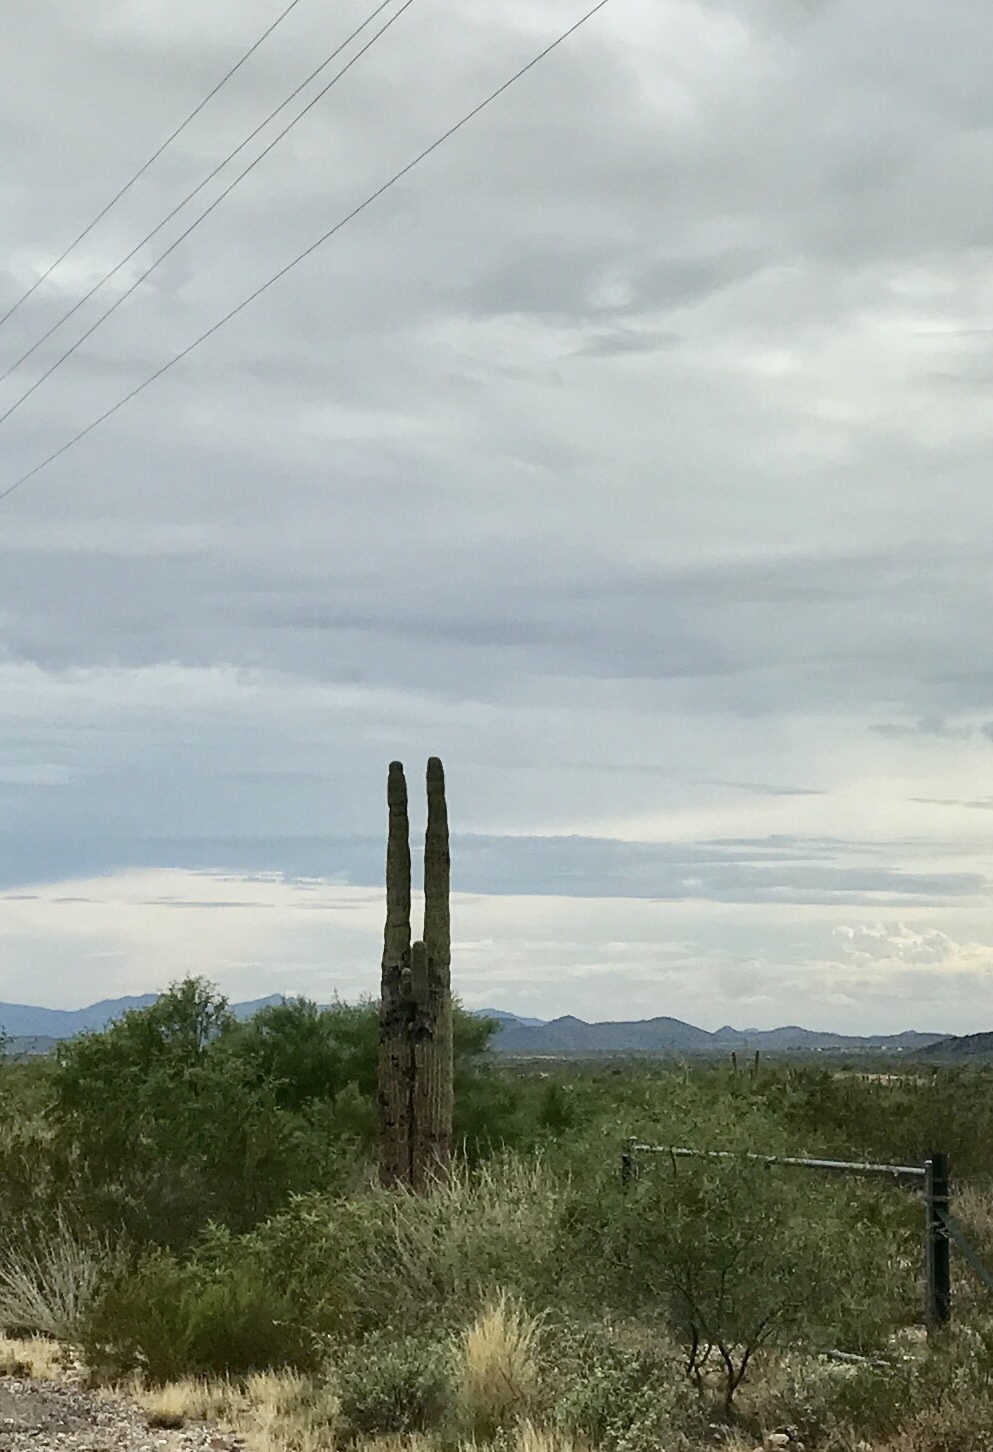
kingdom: Plantae
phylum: Tracheophyta
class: Magnoliopsida
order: Caryophyllales
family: Cactaceae
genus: Carnegiea
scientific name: Carnegiea gigantea
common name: Saguaro
